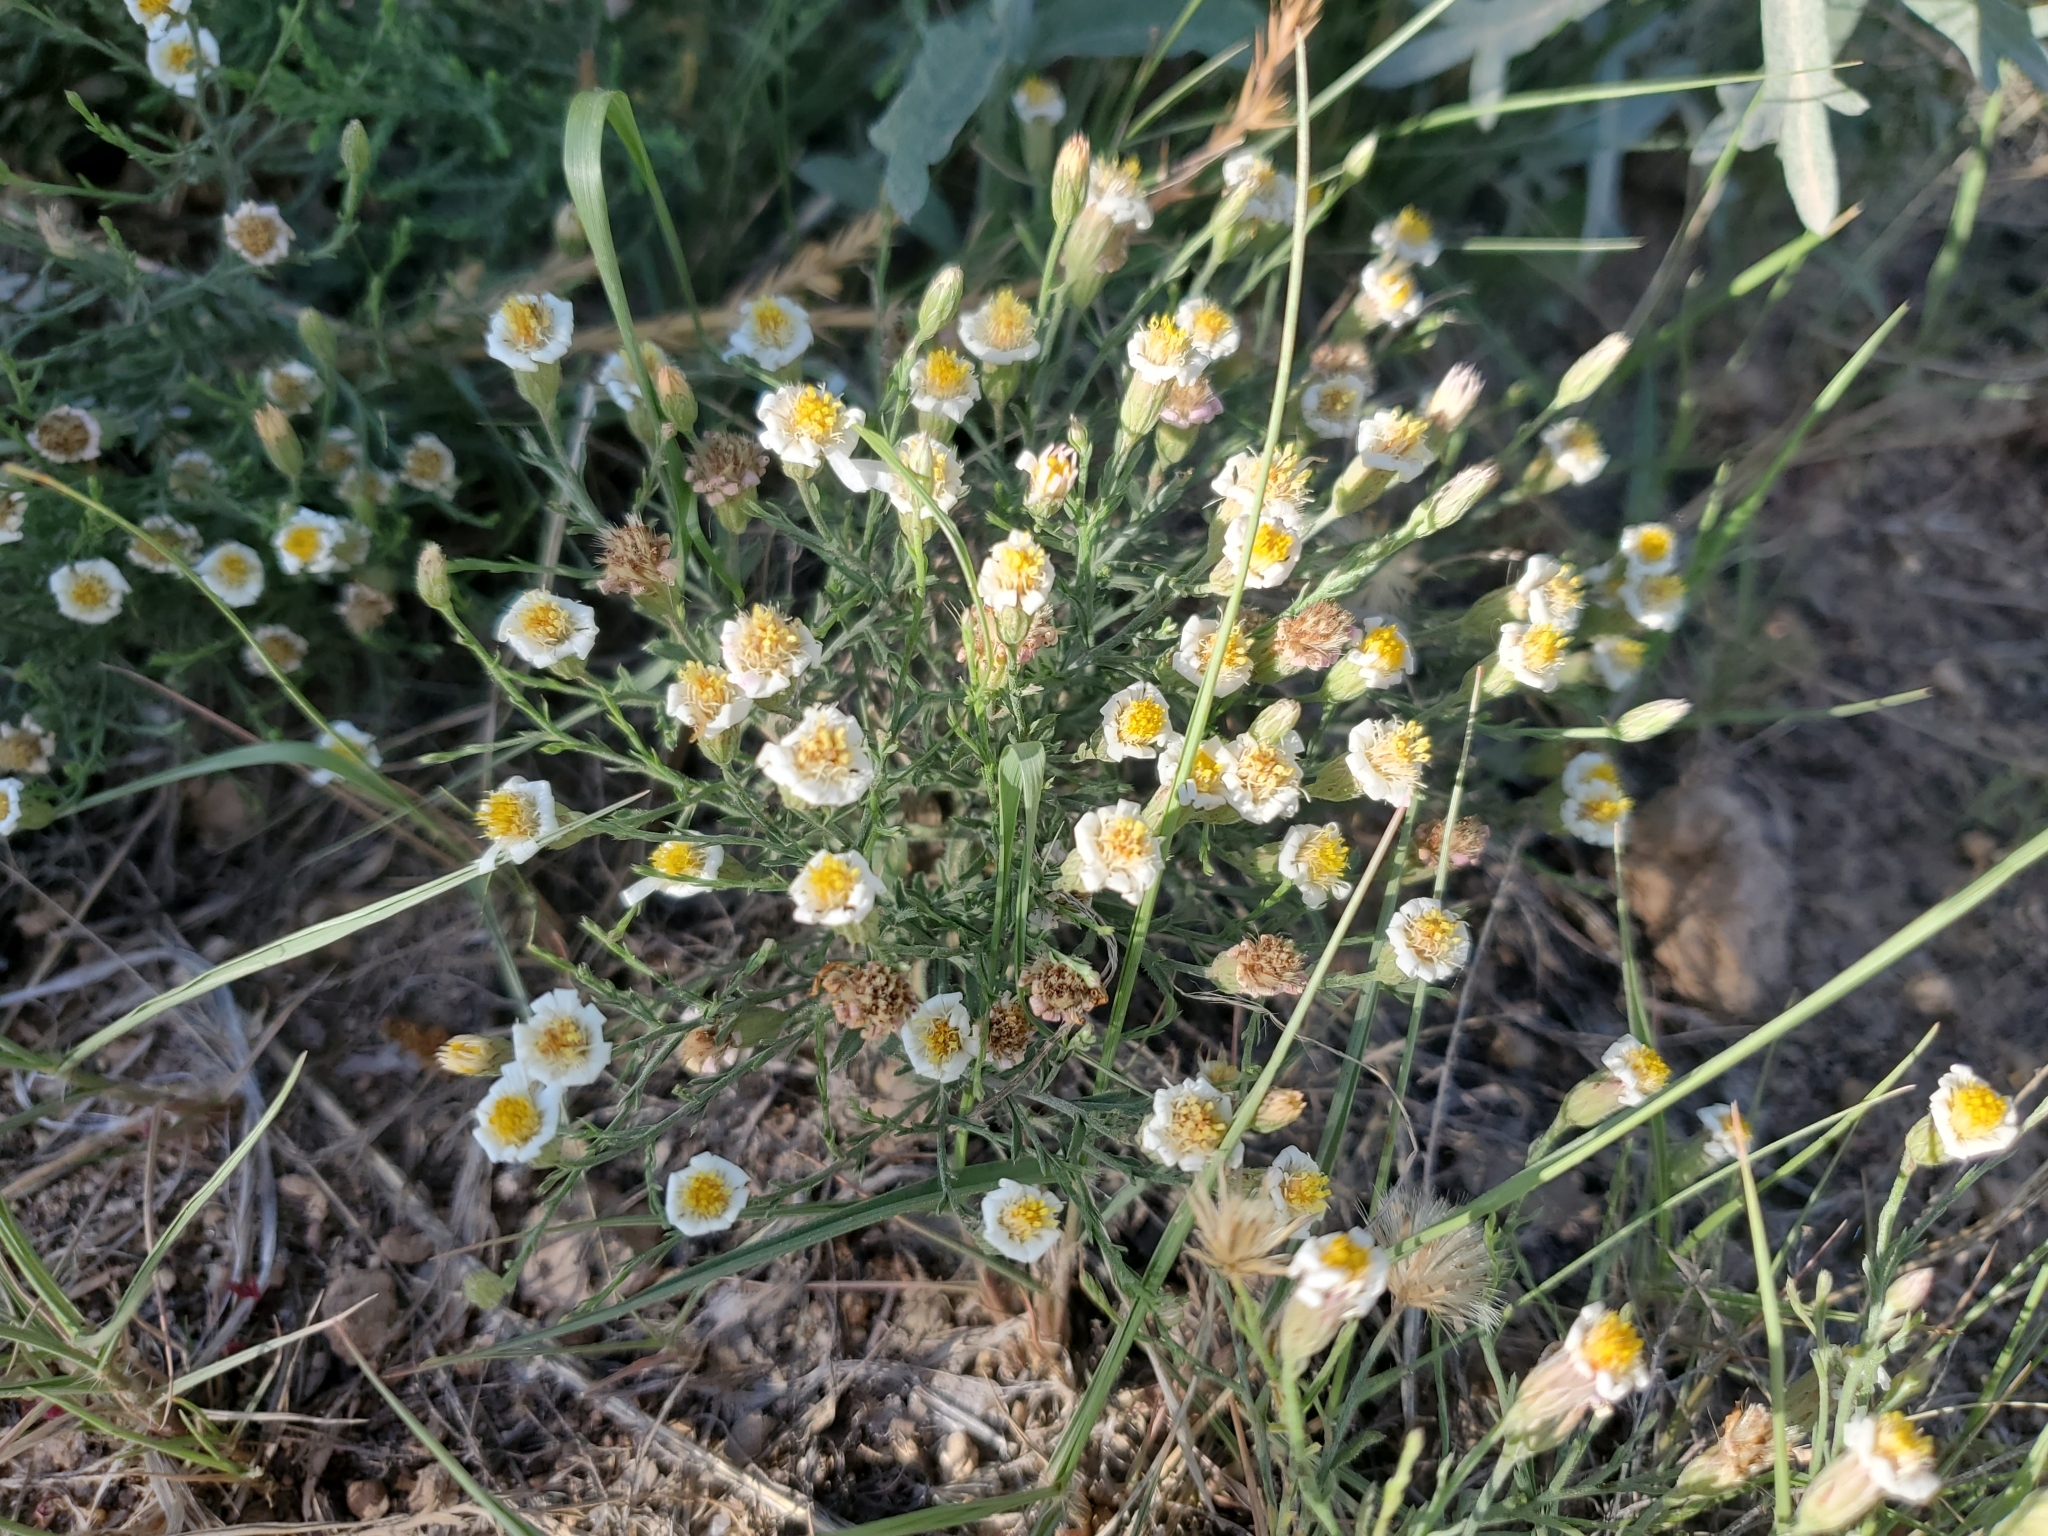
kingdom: Plantae
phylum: Tracheophyta
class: Magnoliopsida
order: Asterales
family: Asteraceae
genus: Chaetopappa
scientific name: Chaetopappa ericoides
